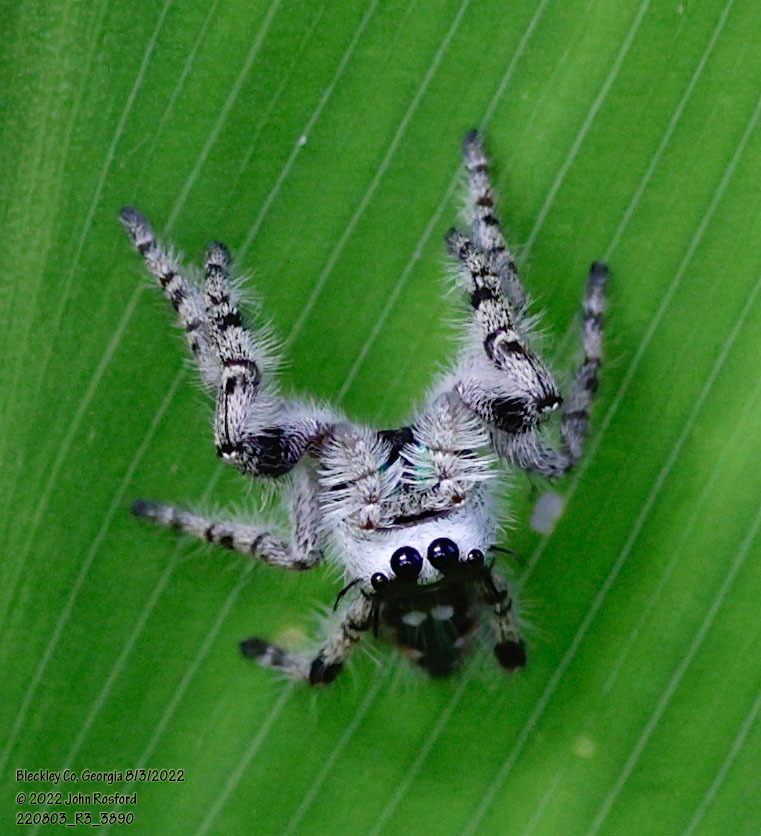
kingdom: Animalia
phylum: Arthropoda
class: Arachnida
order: Araneae
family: Salticidae
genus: Phidippus
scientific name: Phidippus otiosus
